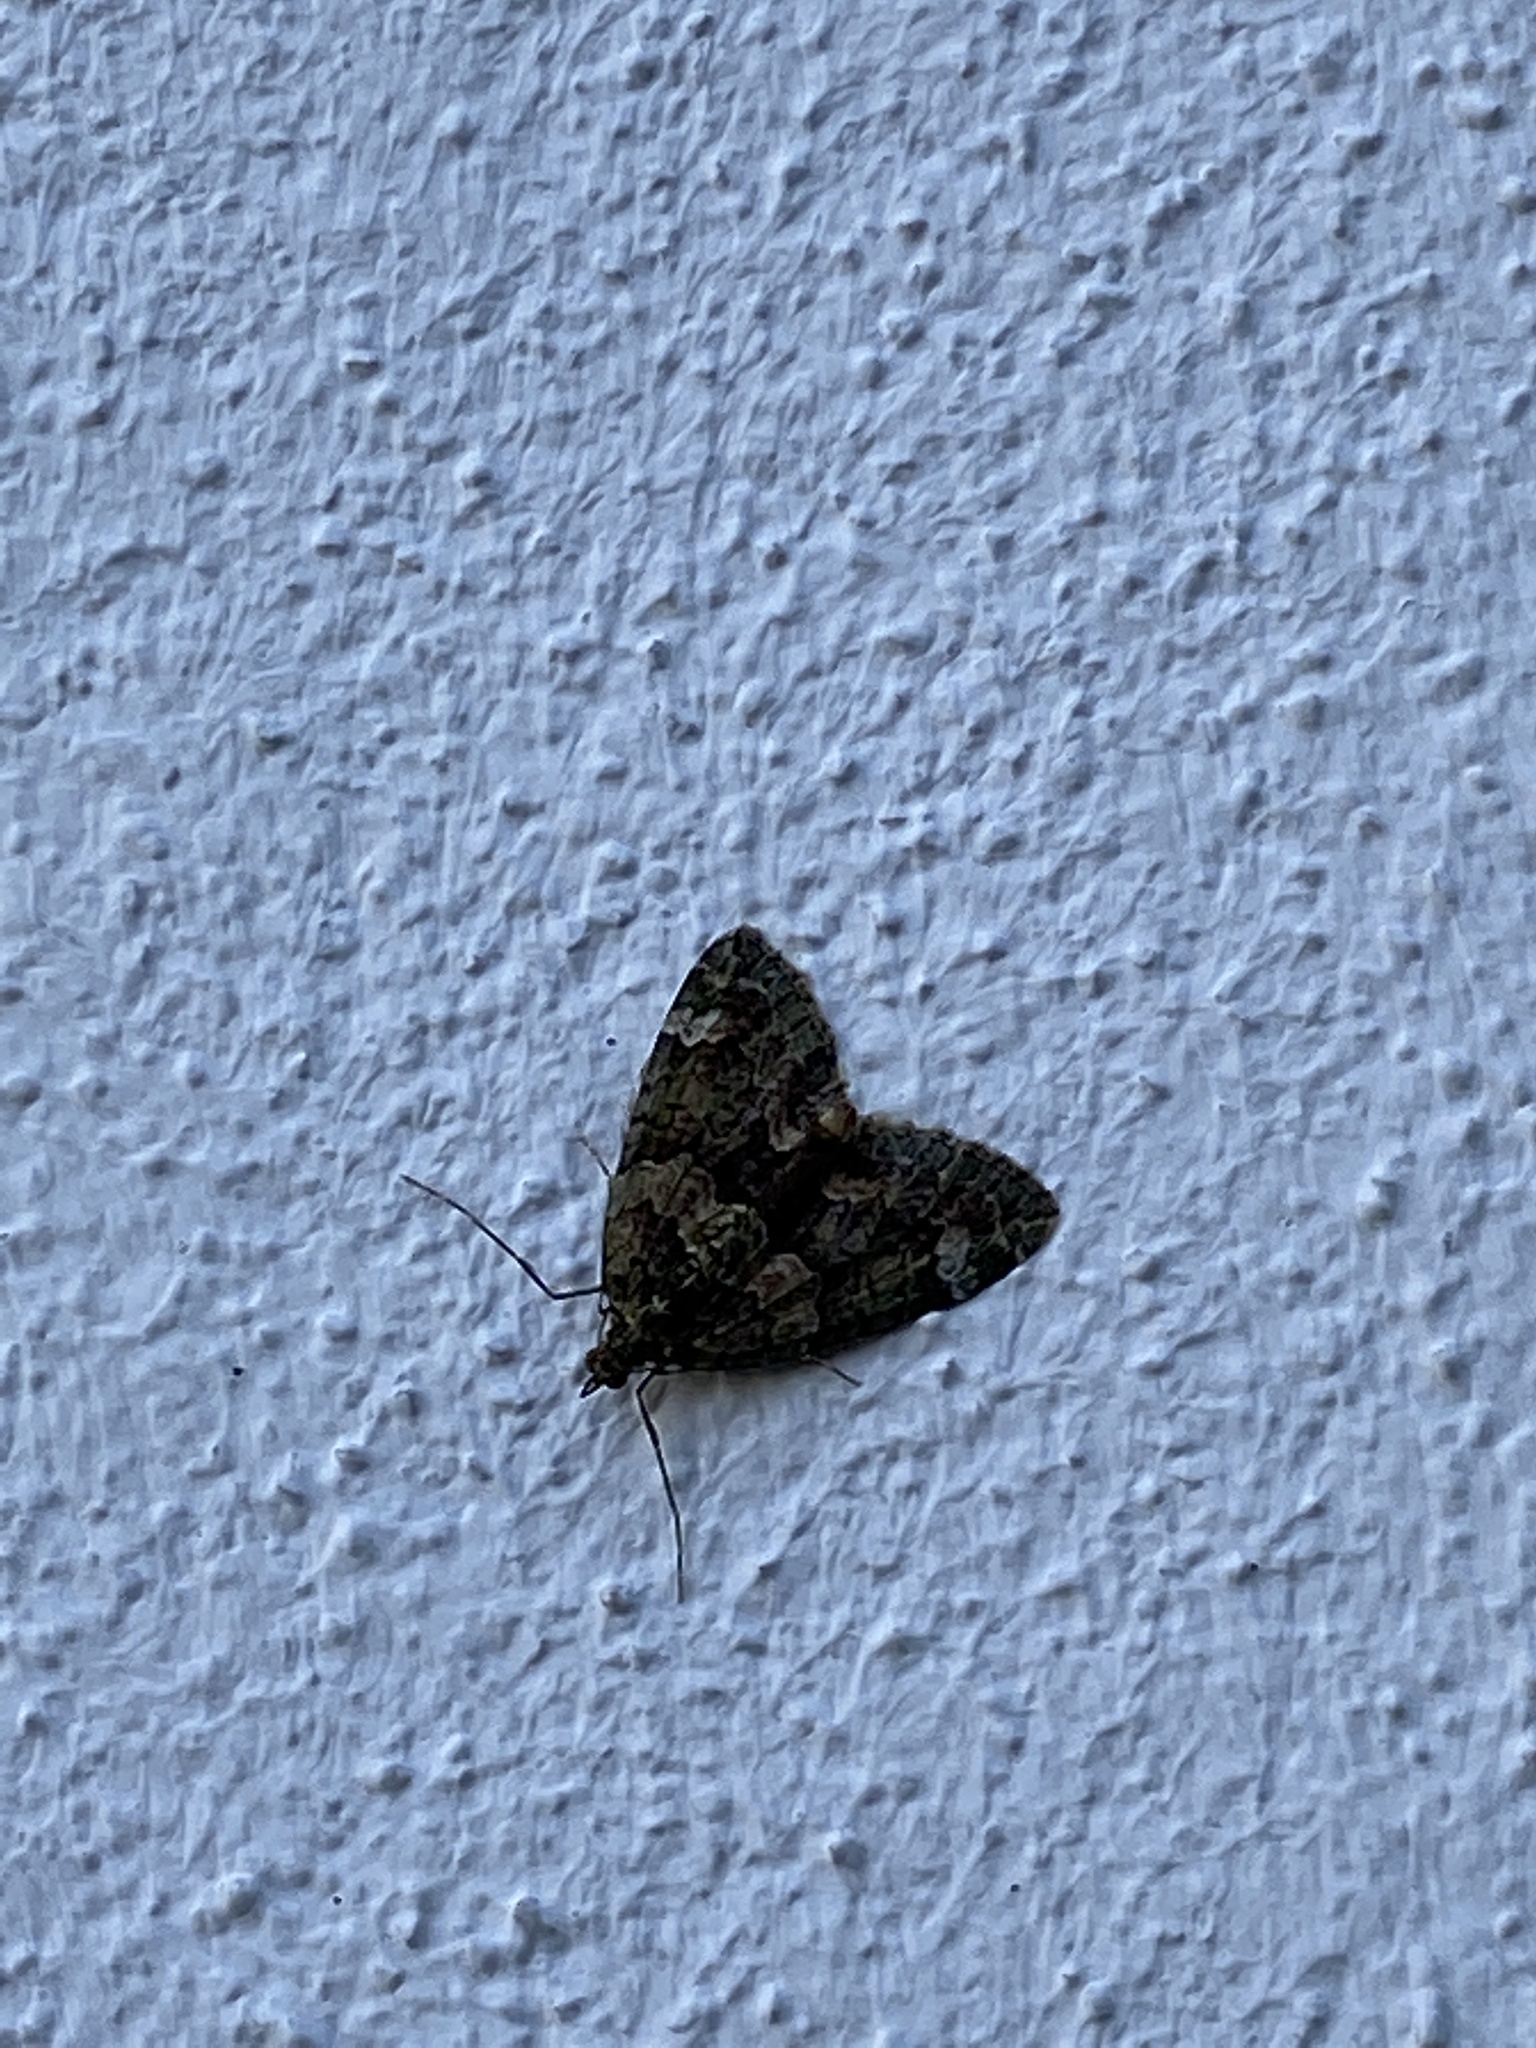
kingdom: Animalia
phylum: Arthropoda
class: Insecta
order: Lepidoptera
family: Geometridae
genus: Chloroclysta
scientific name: Chloroclysta siterata
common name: Red-green carpet
